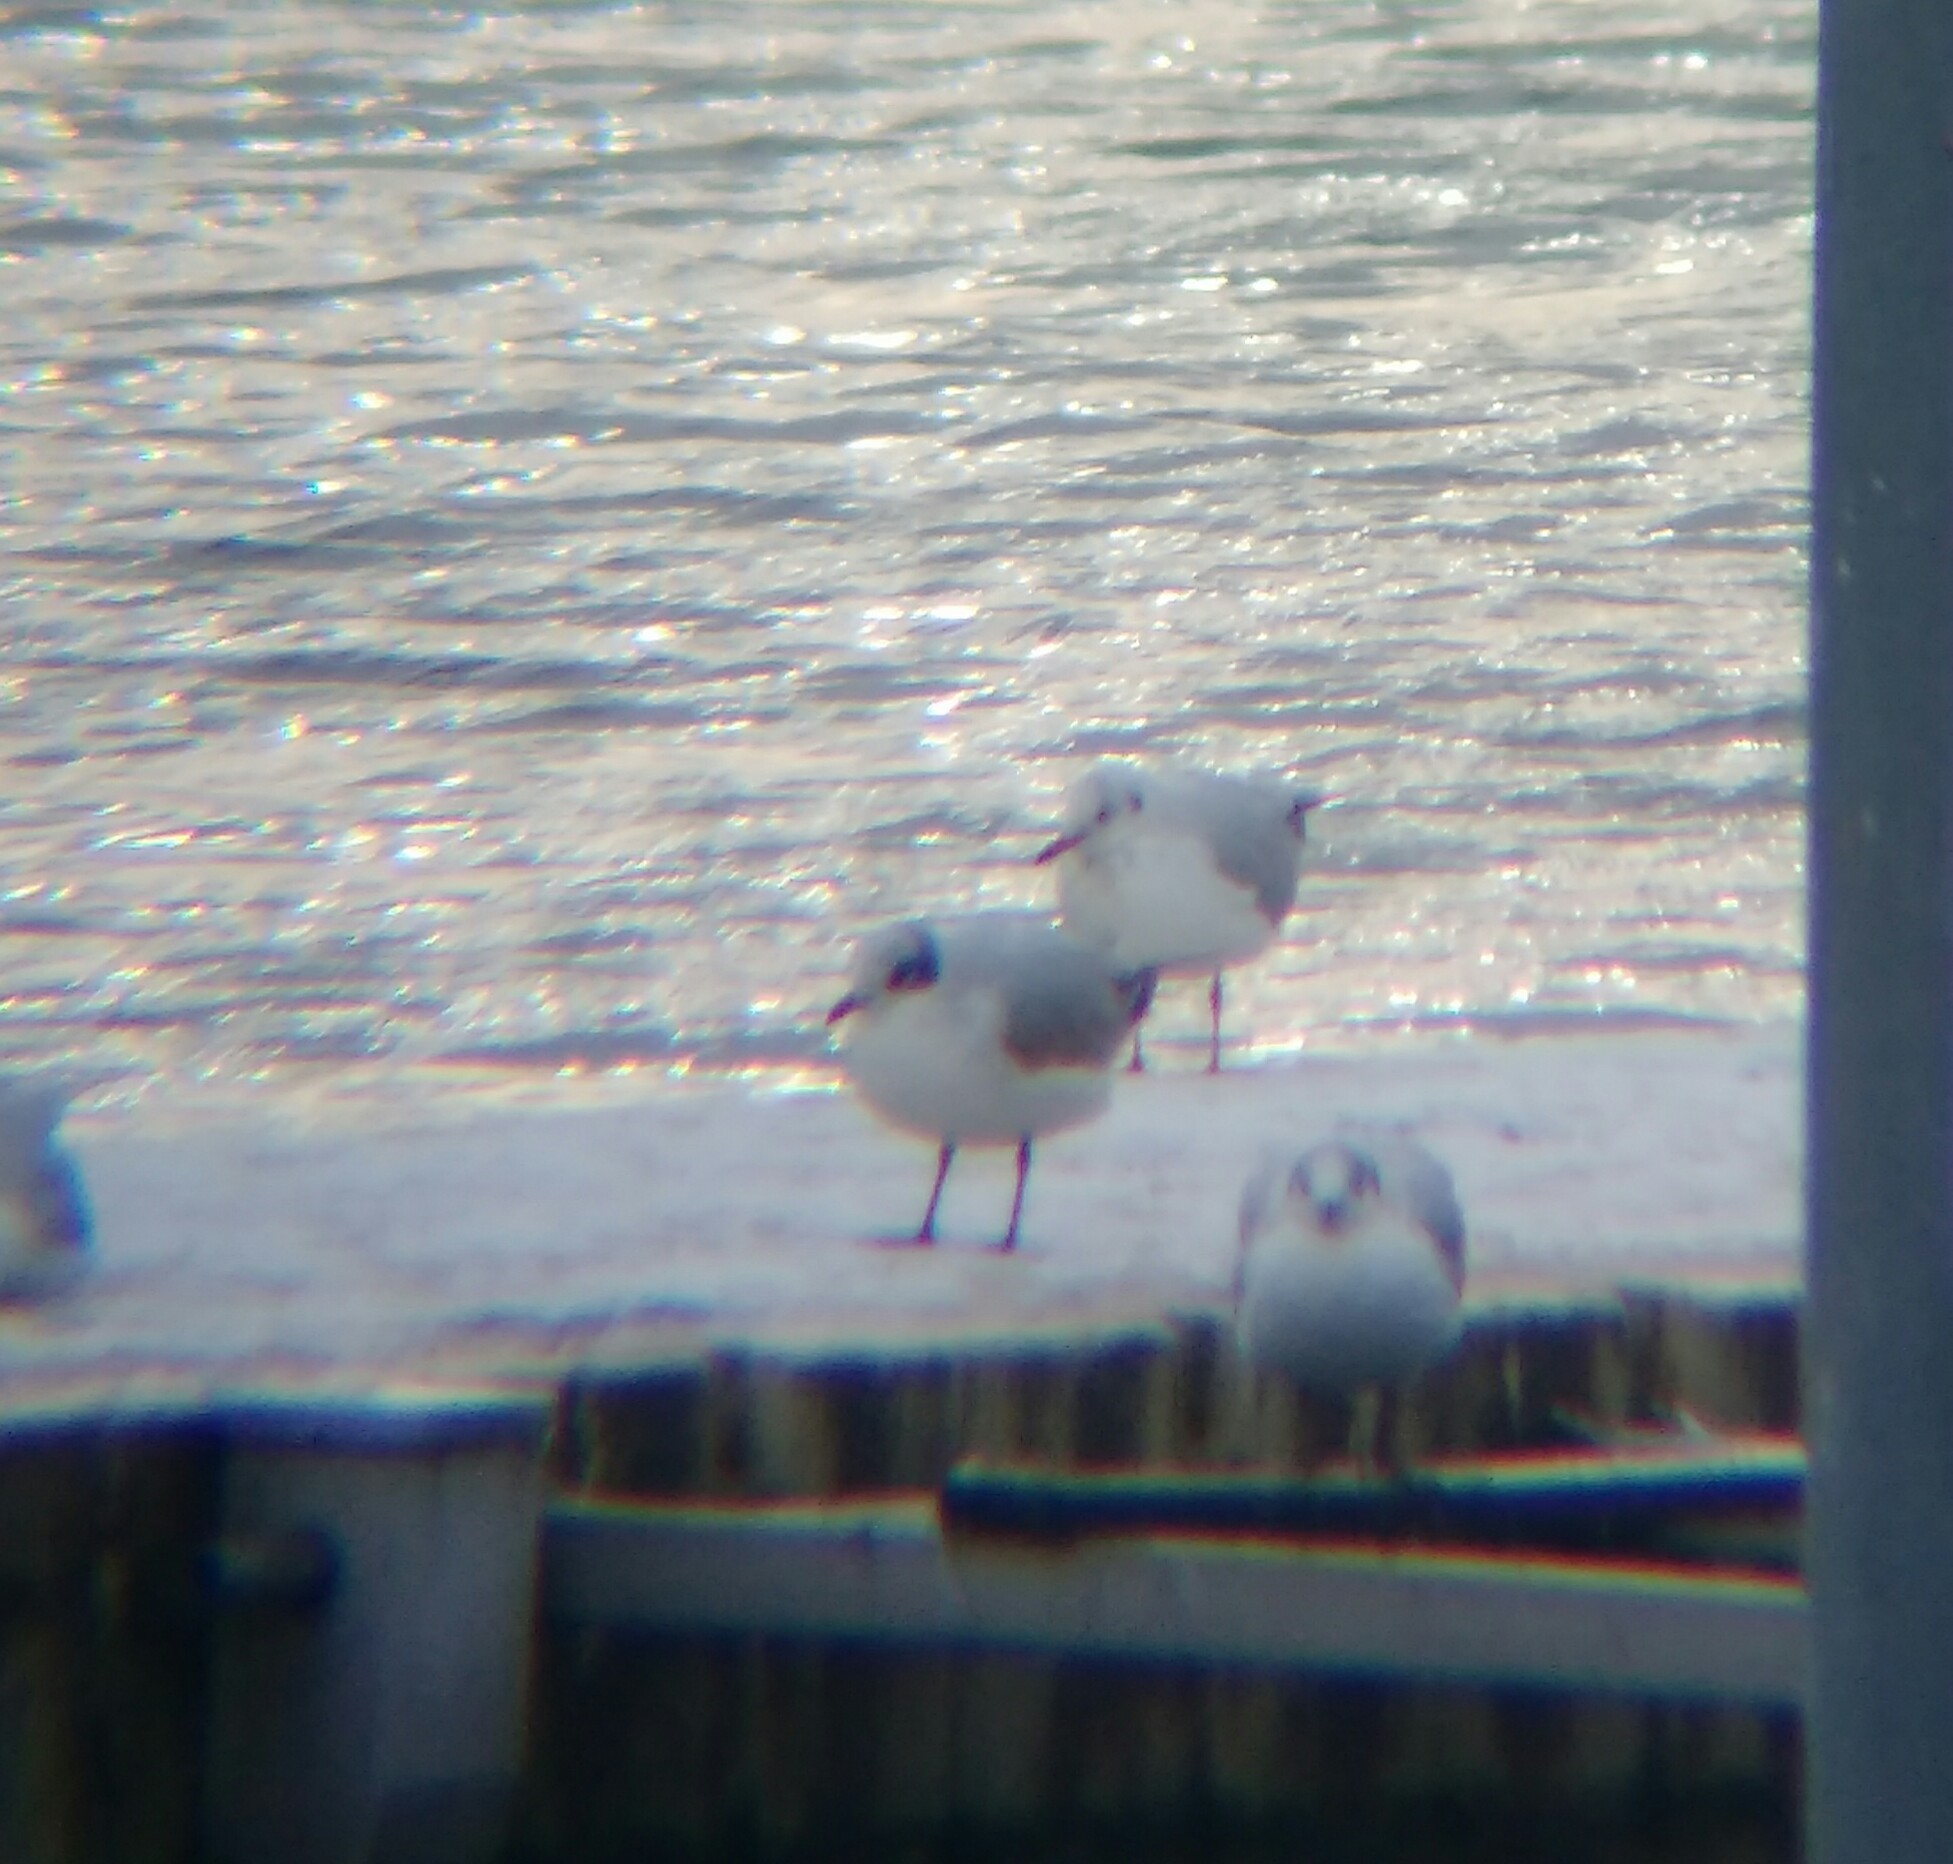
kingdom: Animalia
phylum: Chordata
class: Aves
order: Charadriiformes
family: Laridae
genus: Ichthyaetus
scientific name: Ichthyaetus melanocephalus
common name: Mediterranean gull
